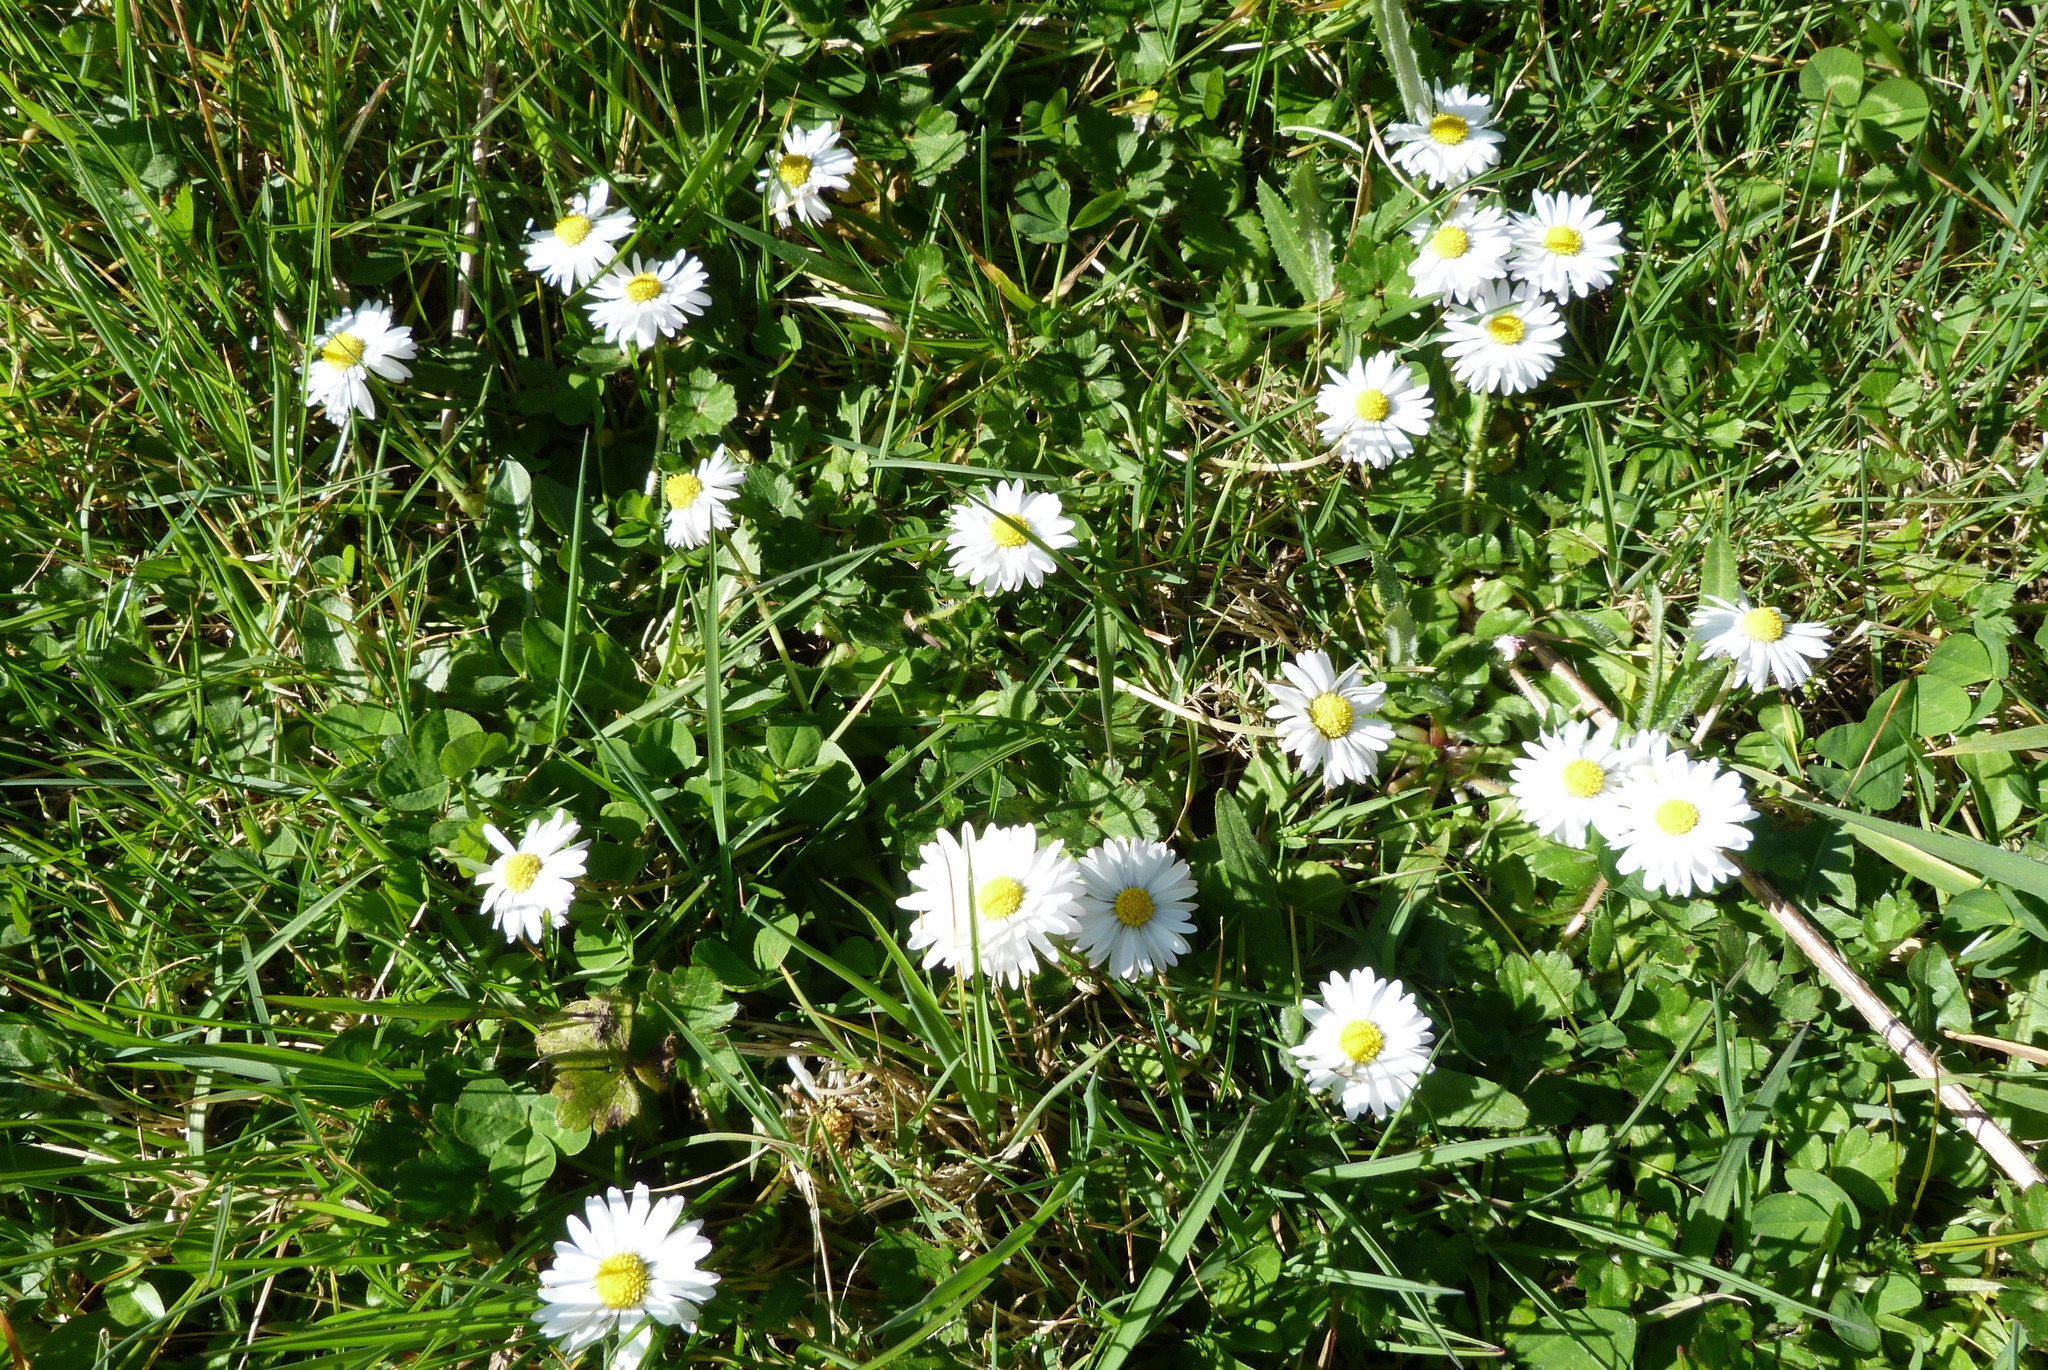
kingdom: Plantae
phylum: Tracheophyta
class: Magnoliopsida
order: Asterales
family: Asteraceae
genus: Bellis
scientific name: Bellis perennis
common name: Lawndaisy
